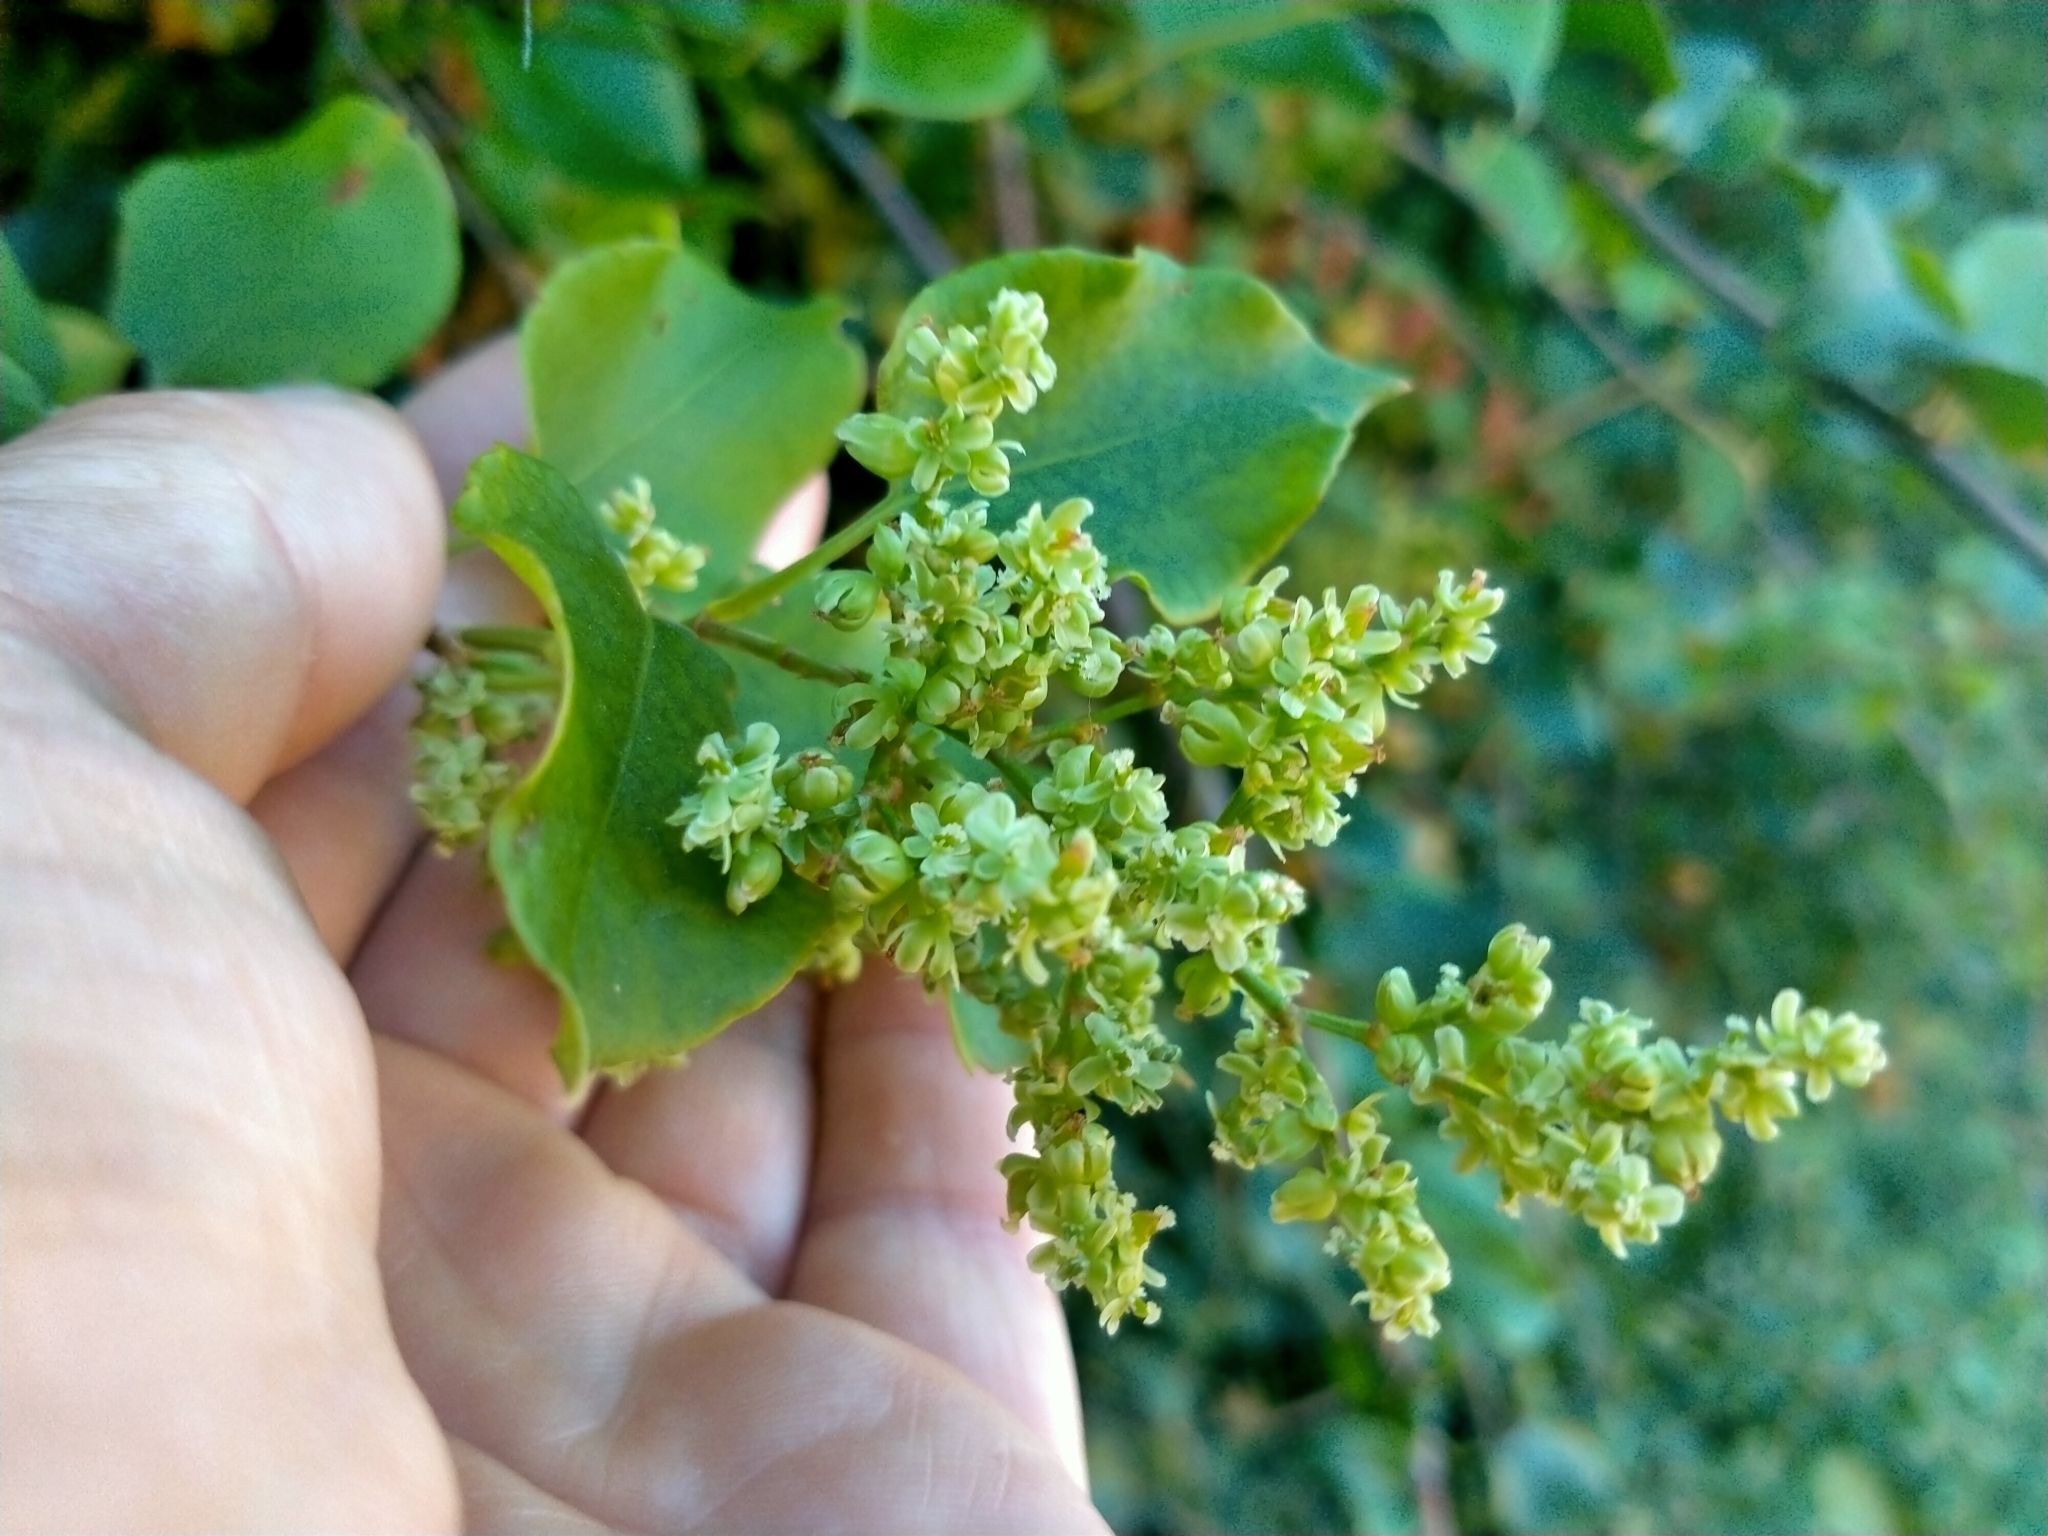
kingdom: Plantae
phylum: Tracheophyta
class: Magnoliopsida
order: Caryophyllales
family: Polygonaceae
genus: Muehlenbeckia
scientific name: Muehlenbeckia australis
